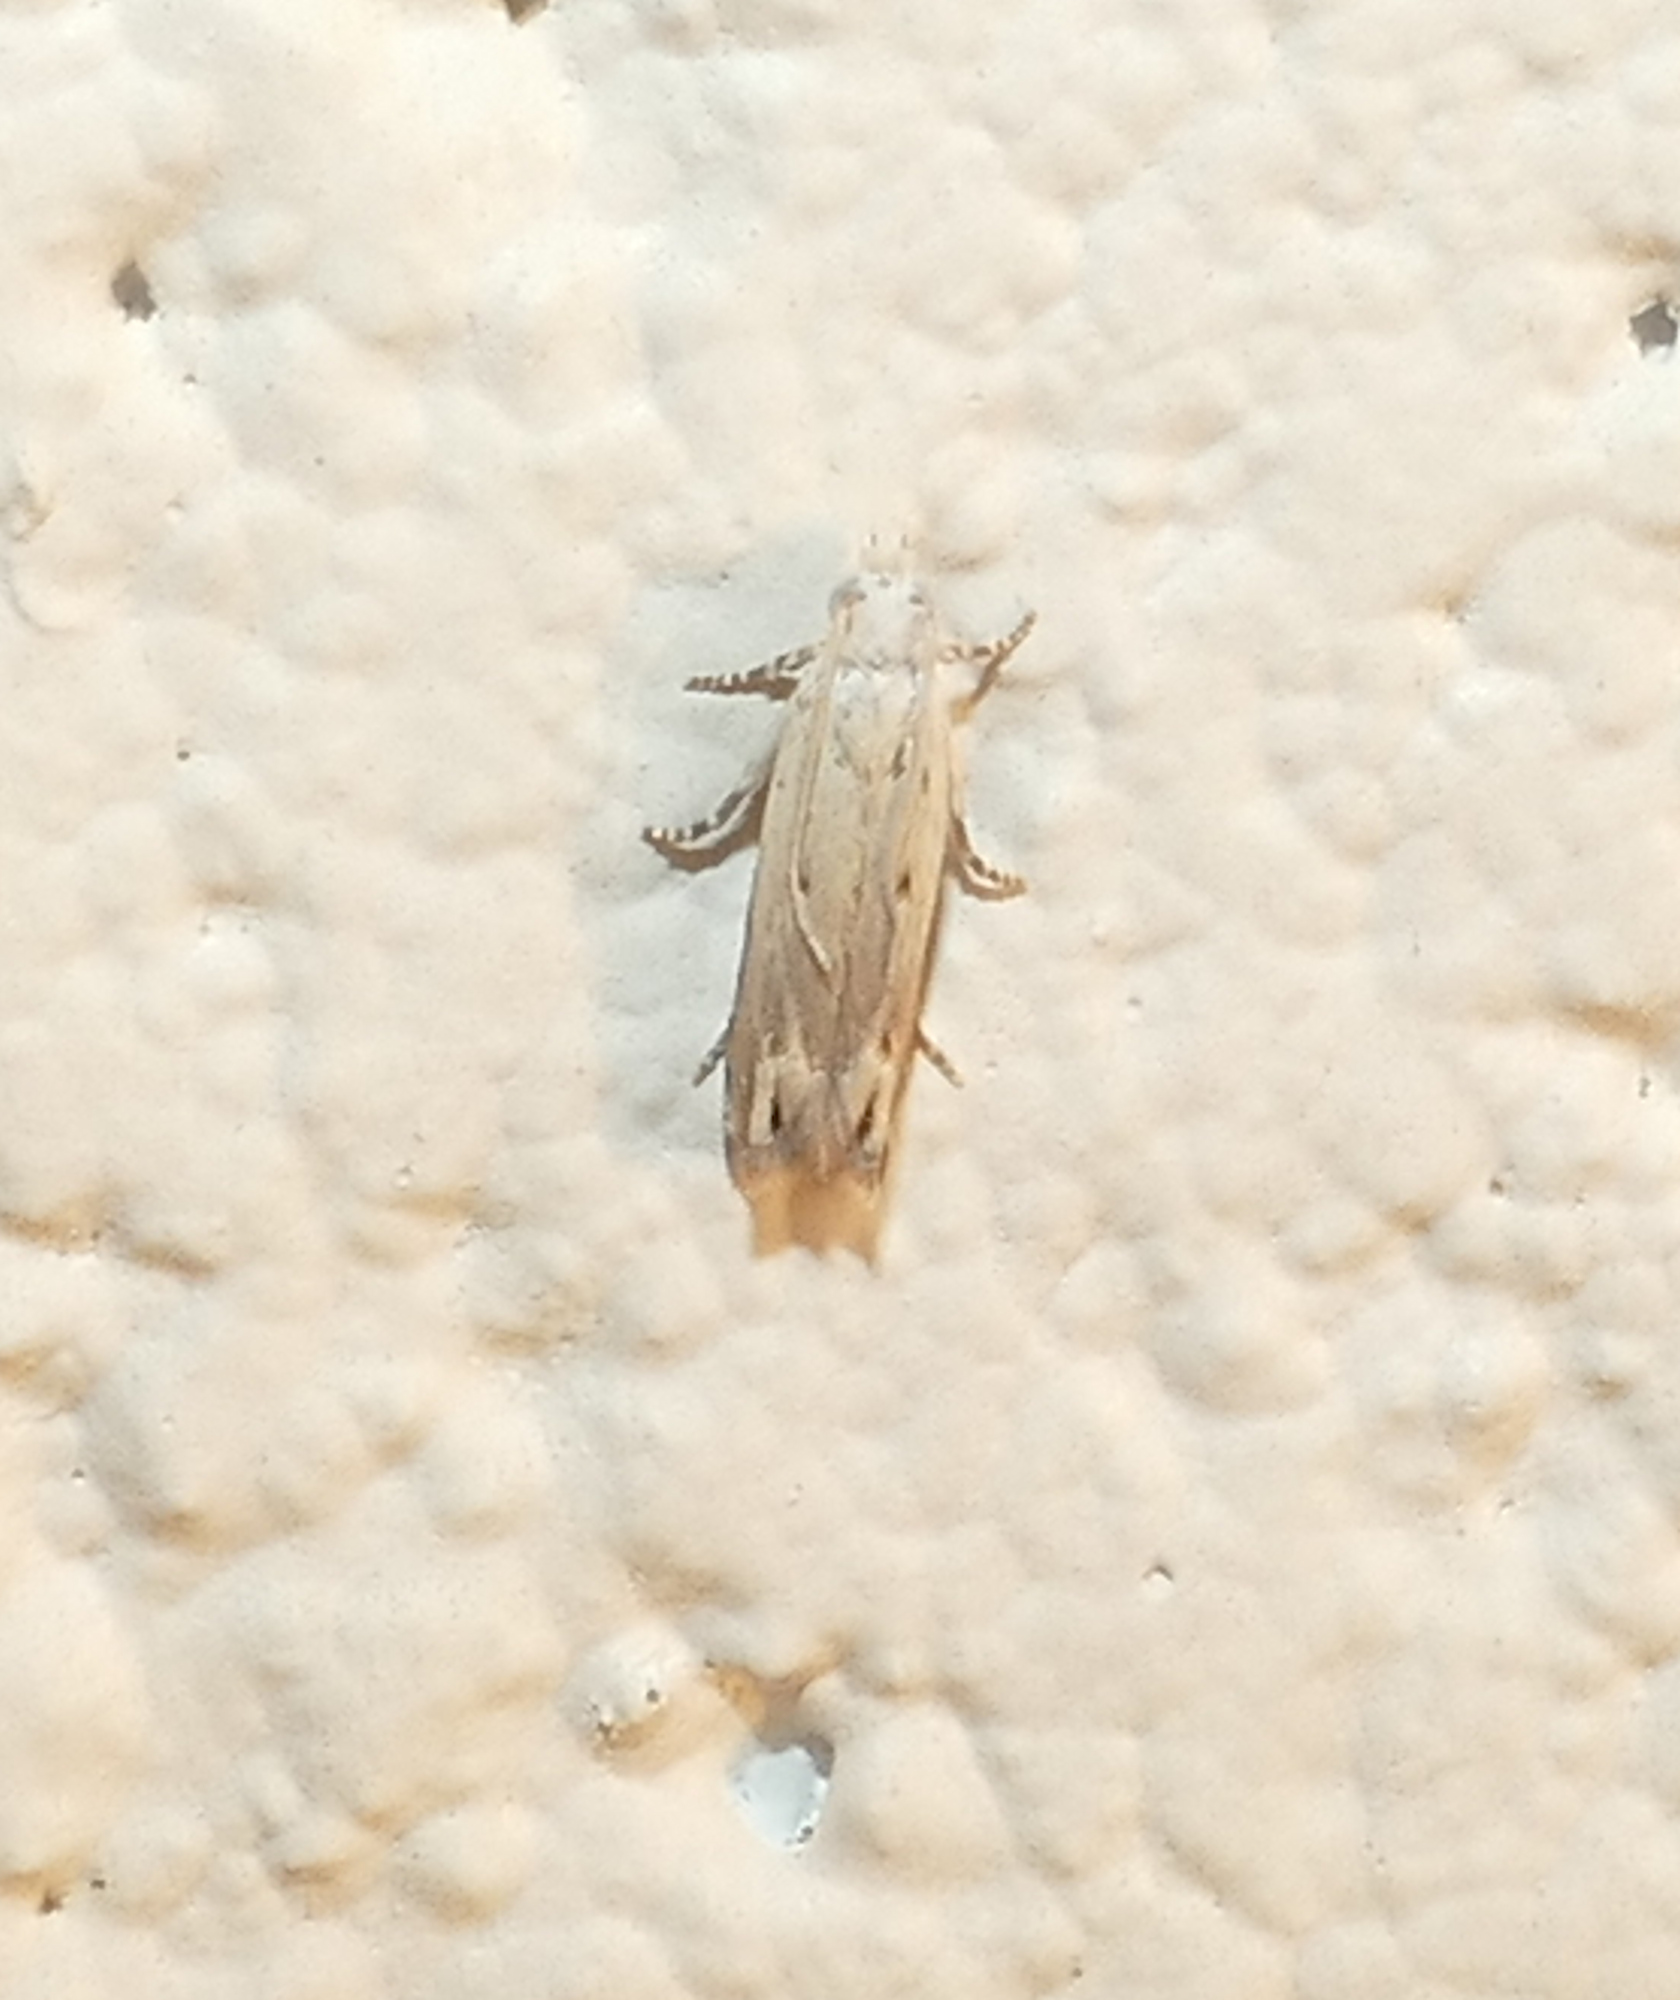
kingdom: Animalia
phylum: Arthropoda
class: Insecta
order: Lepidoptera
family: Tortricidae
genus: Epiblema
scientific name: Epiblema separationis
